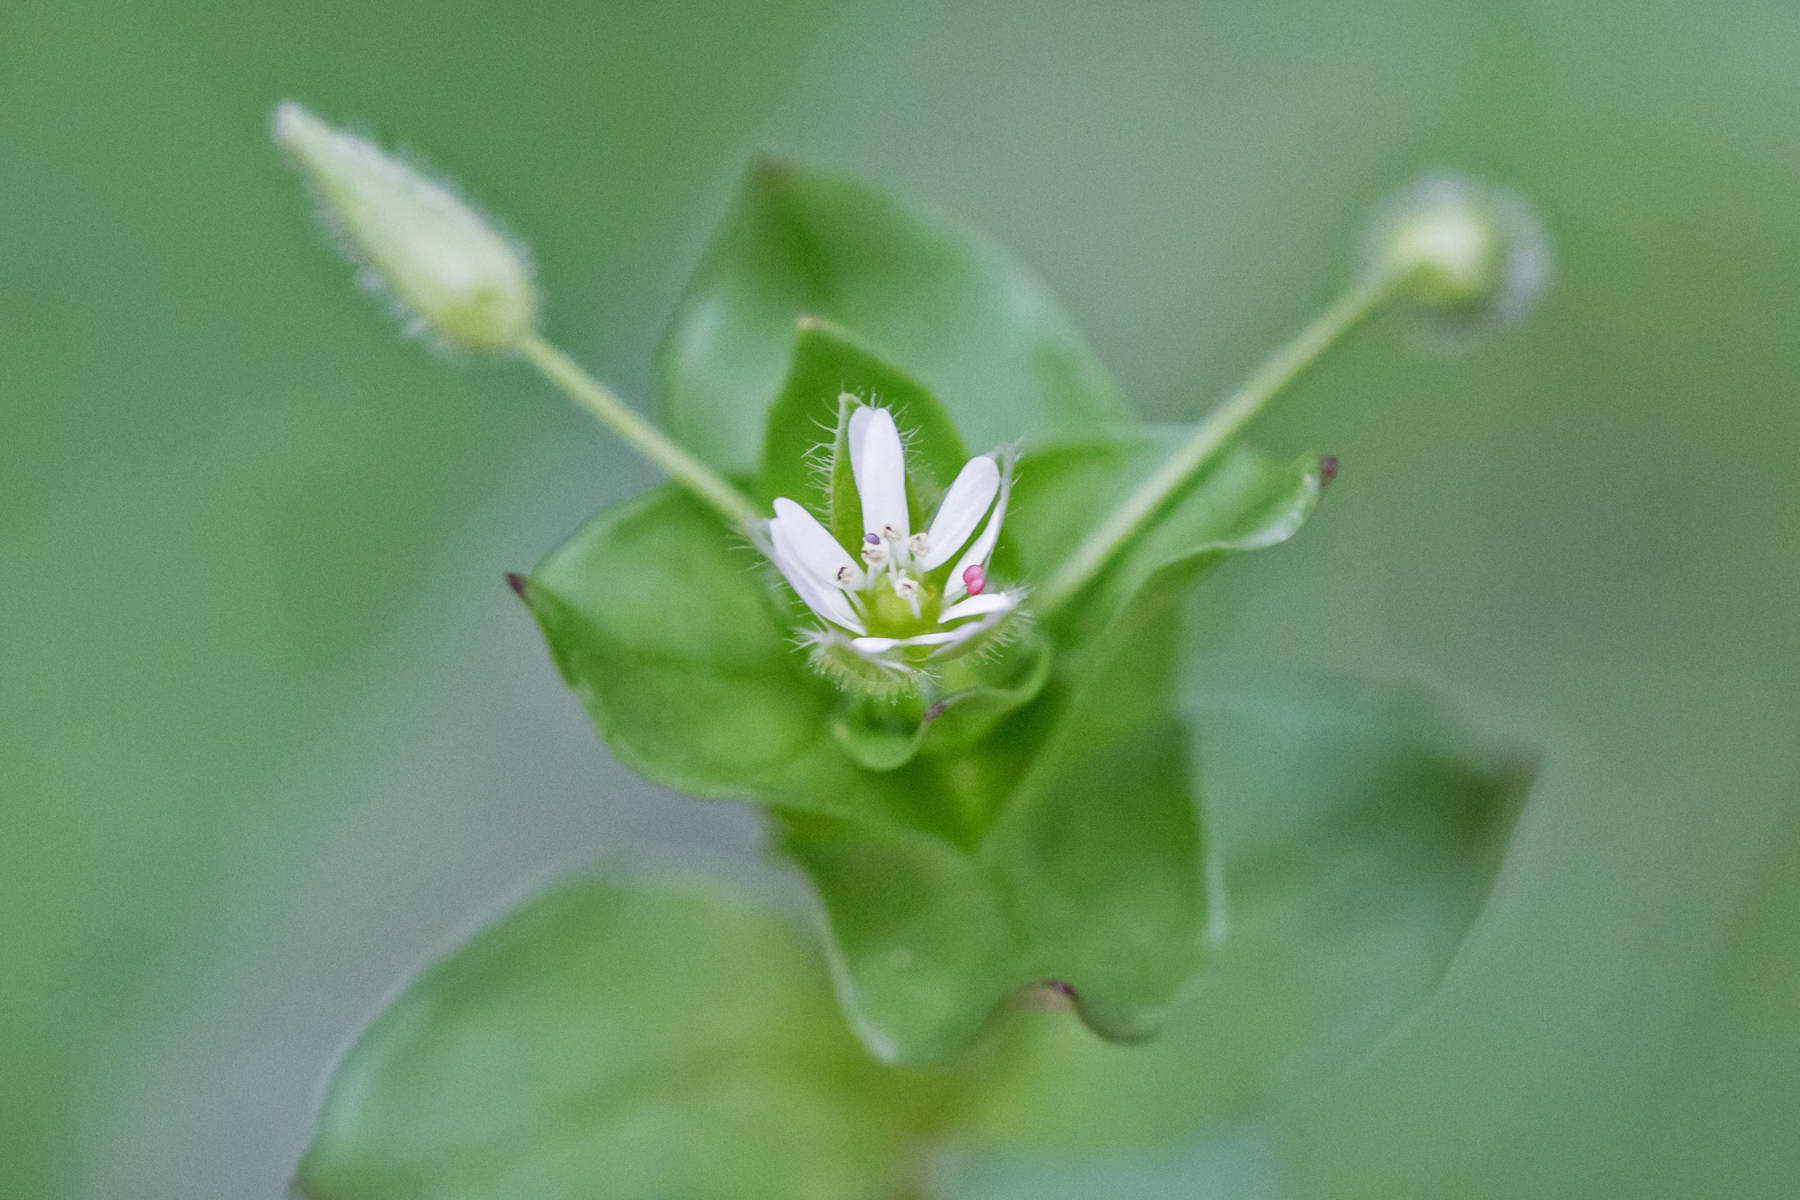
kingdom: Plantae
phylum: Tracheophyta
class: Magnoliopsida
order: Caryophyllales
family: Caryophyllaceae
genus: Stellaria
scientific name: Stellaria media
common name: Common chickweed
